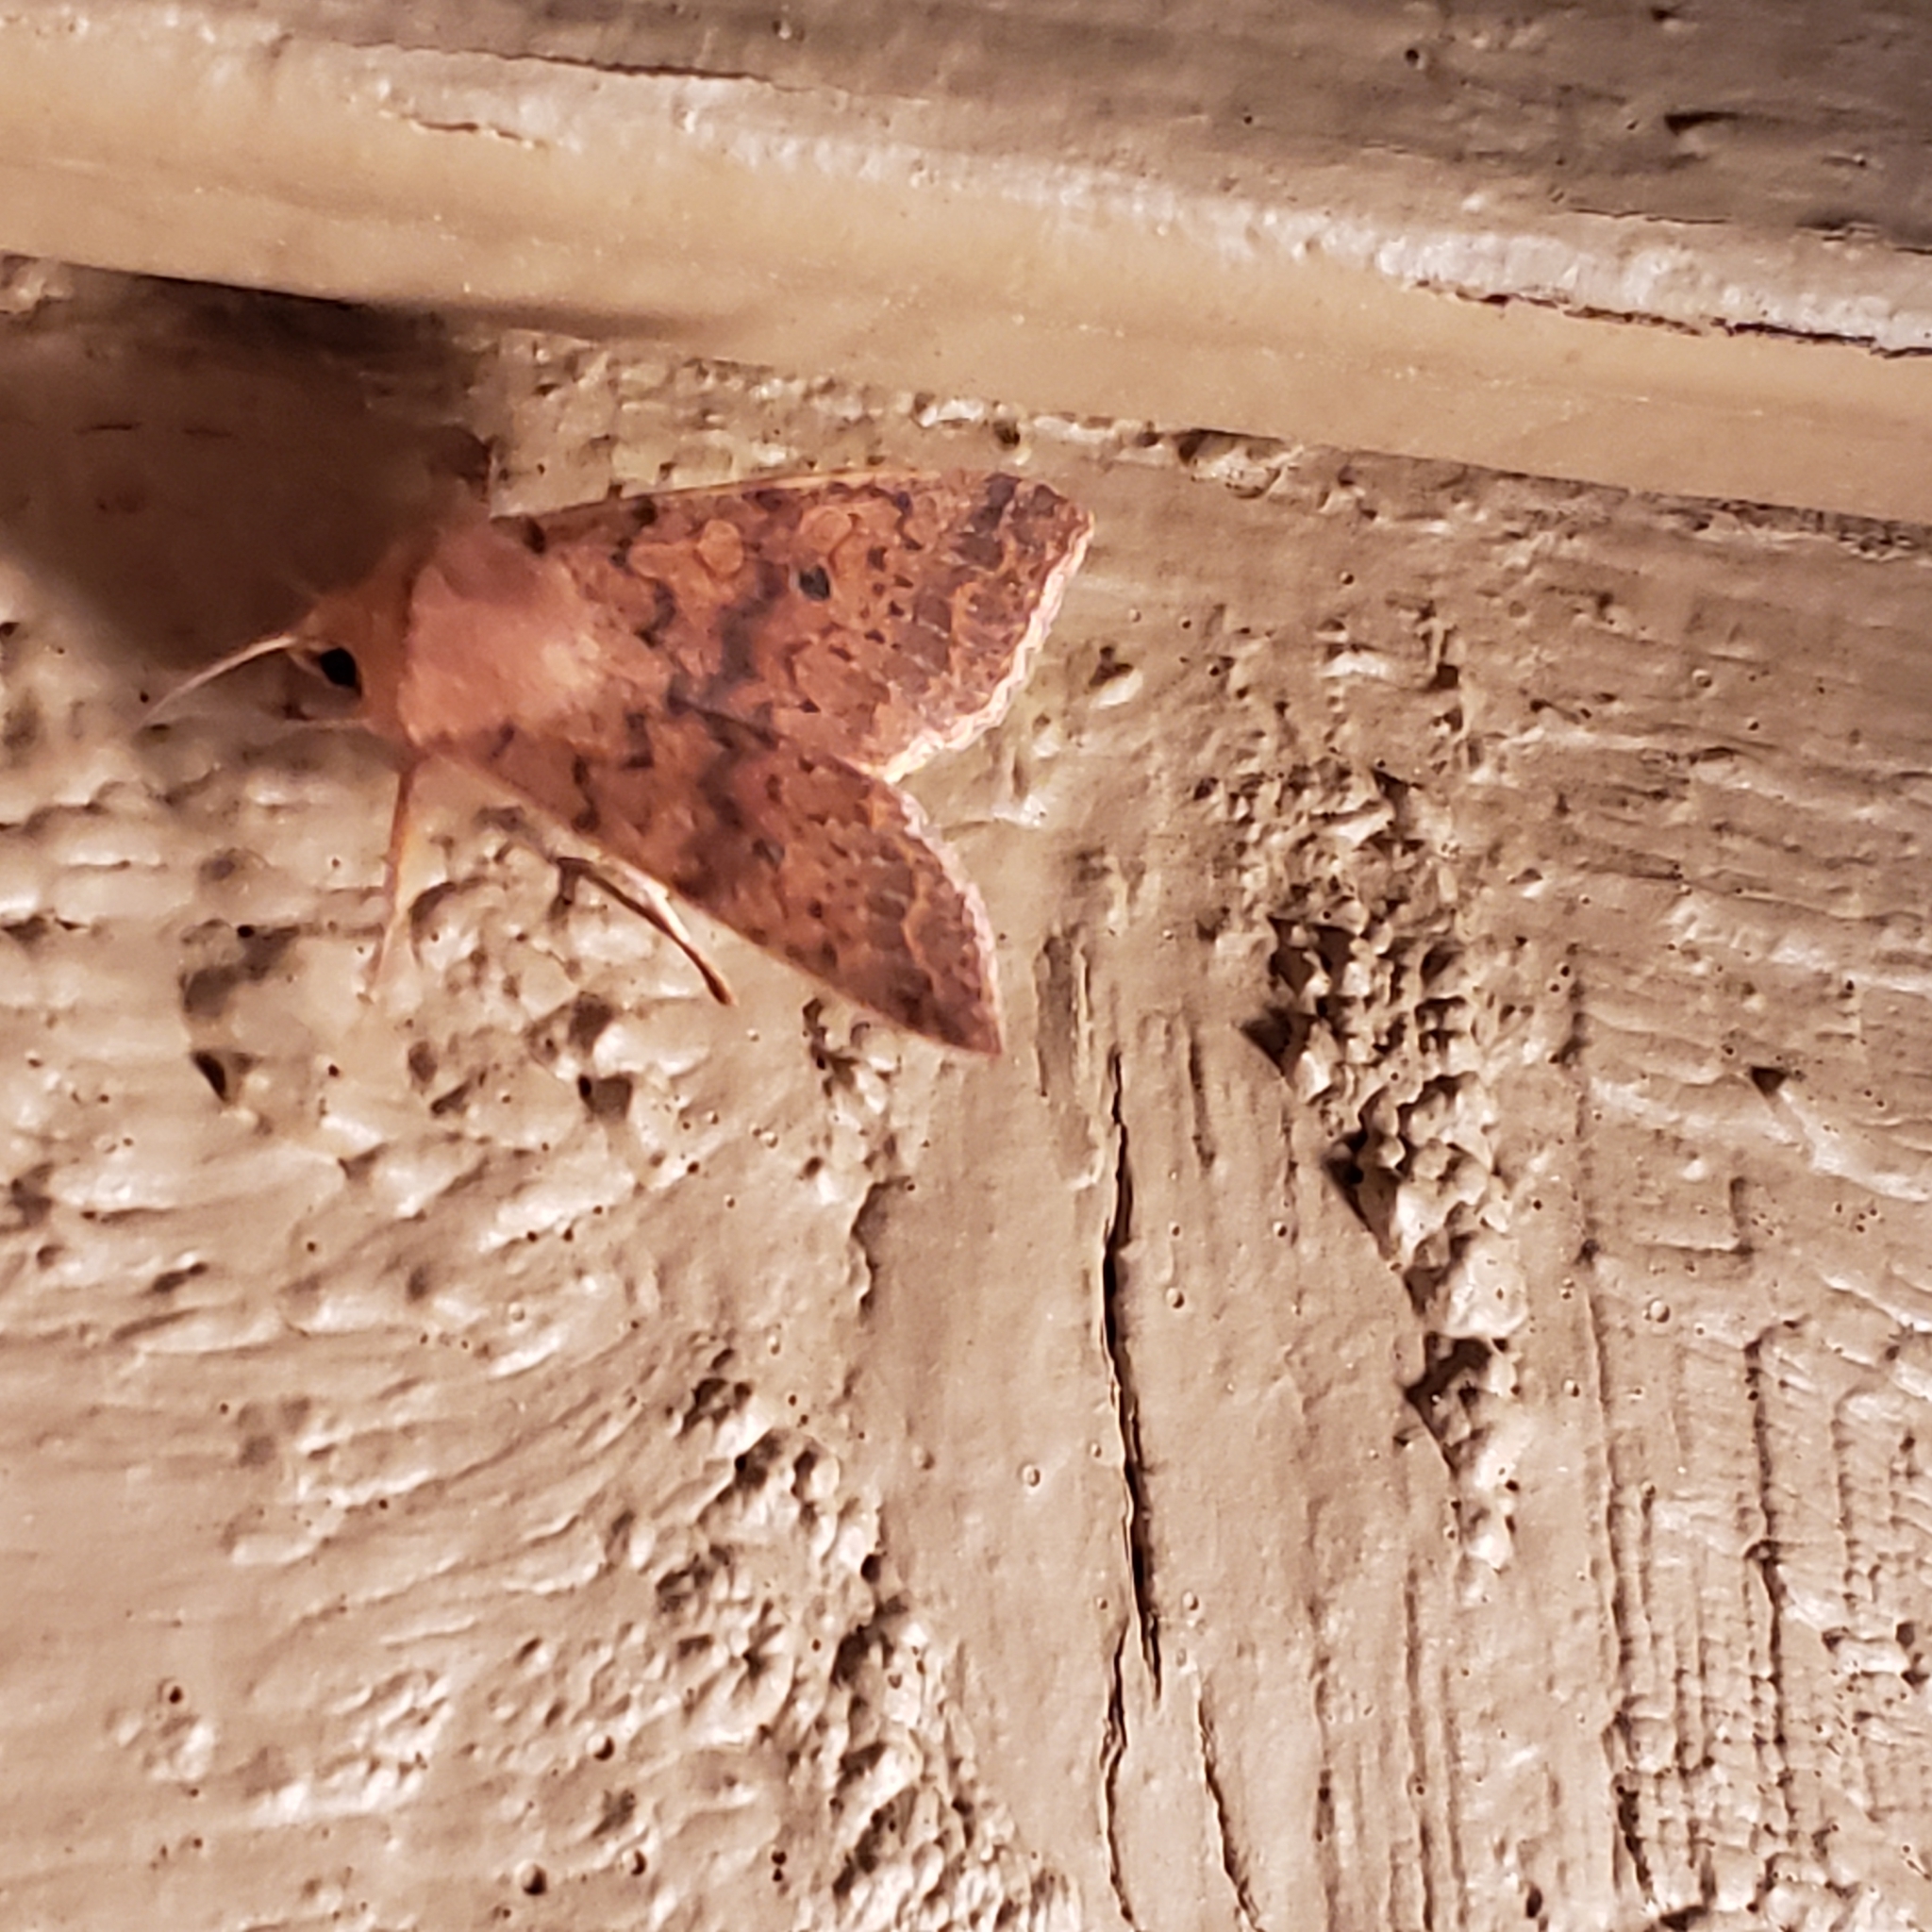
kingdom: Animalia
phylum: Arthropoda
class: Insecta
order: Lepidoptera
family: Noctuidae
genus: Agrochola
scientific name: Agrochola bicolorago
